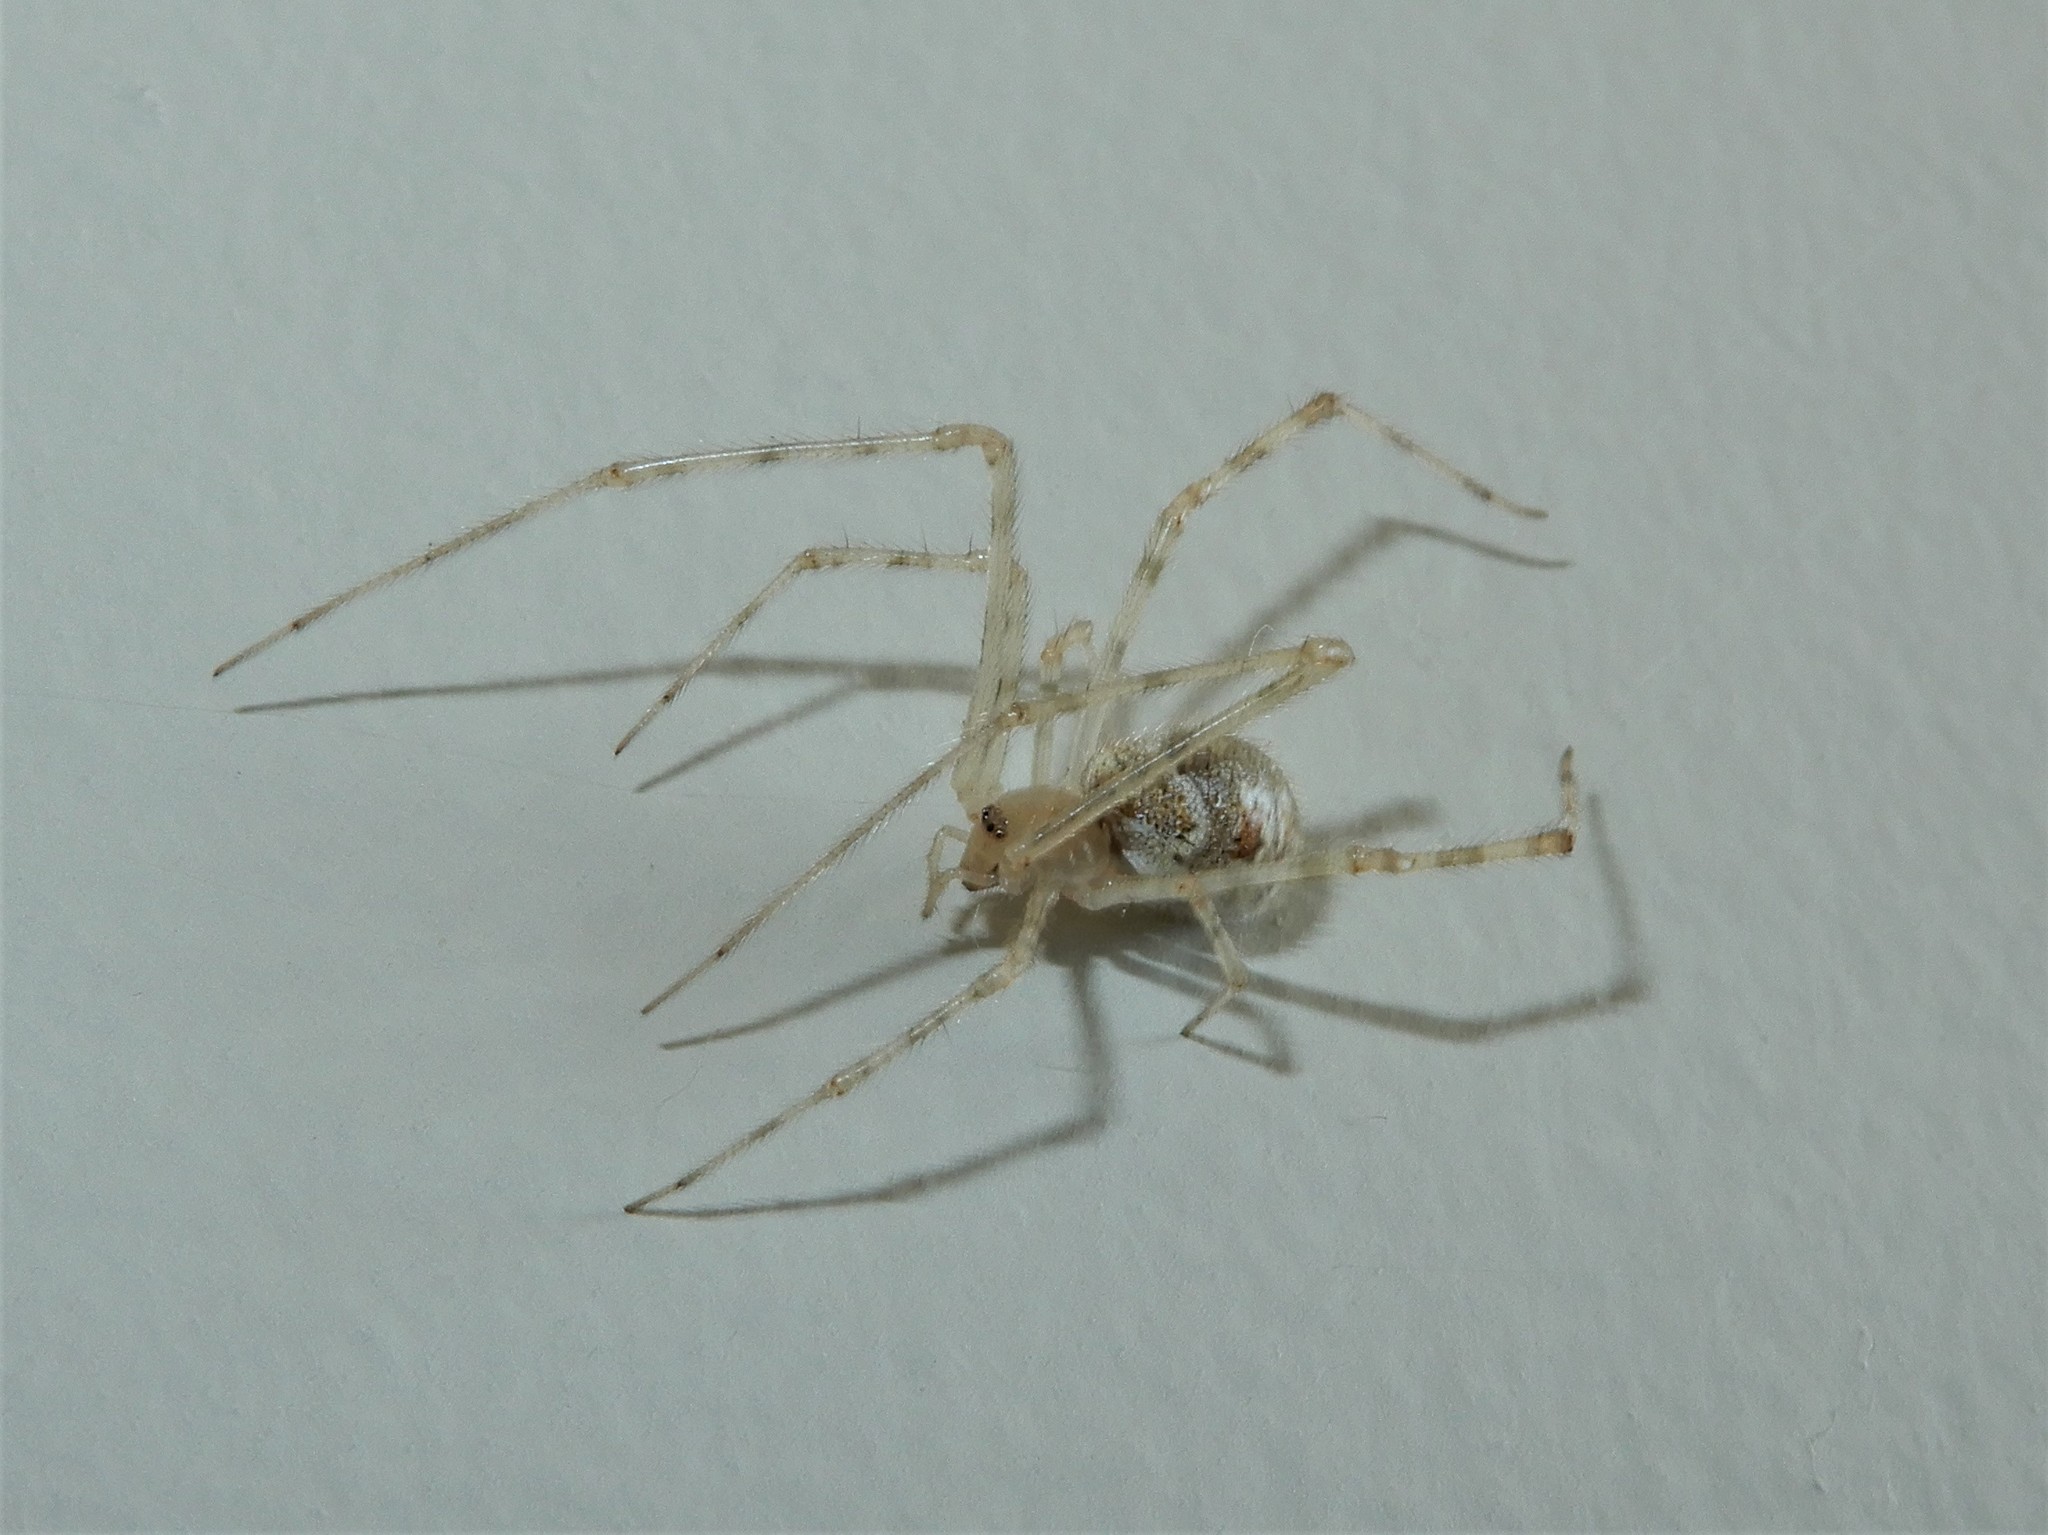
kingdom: Animalia
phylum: Arthropoda
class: Arachnida
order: Araneae
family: Theridiidae
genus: Cryptachaea
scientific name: Cryptachaea gigantipes
